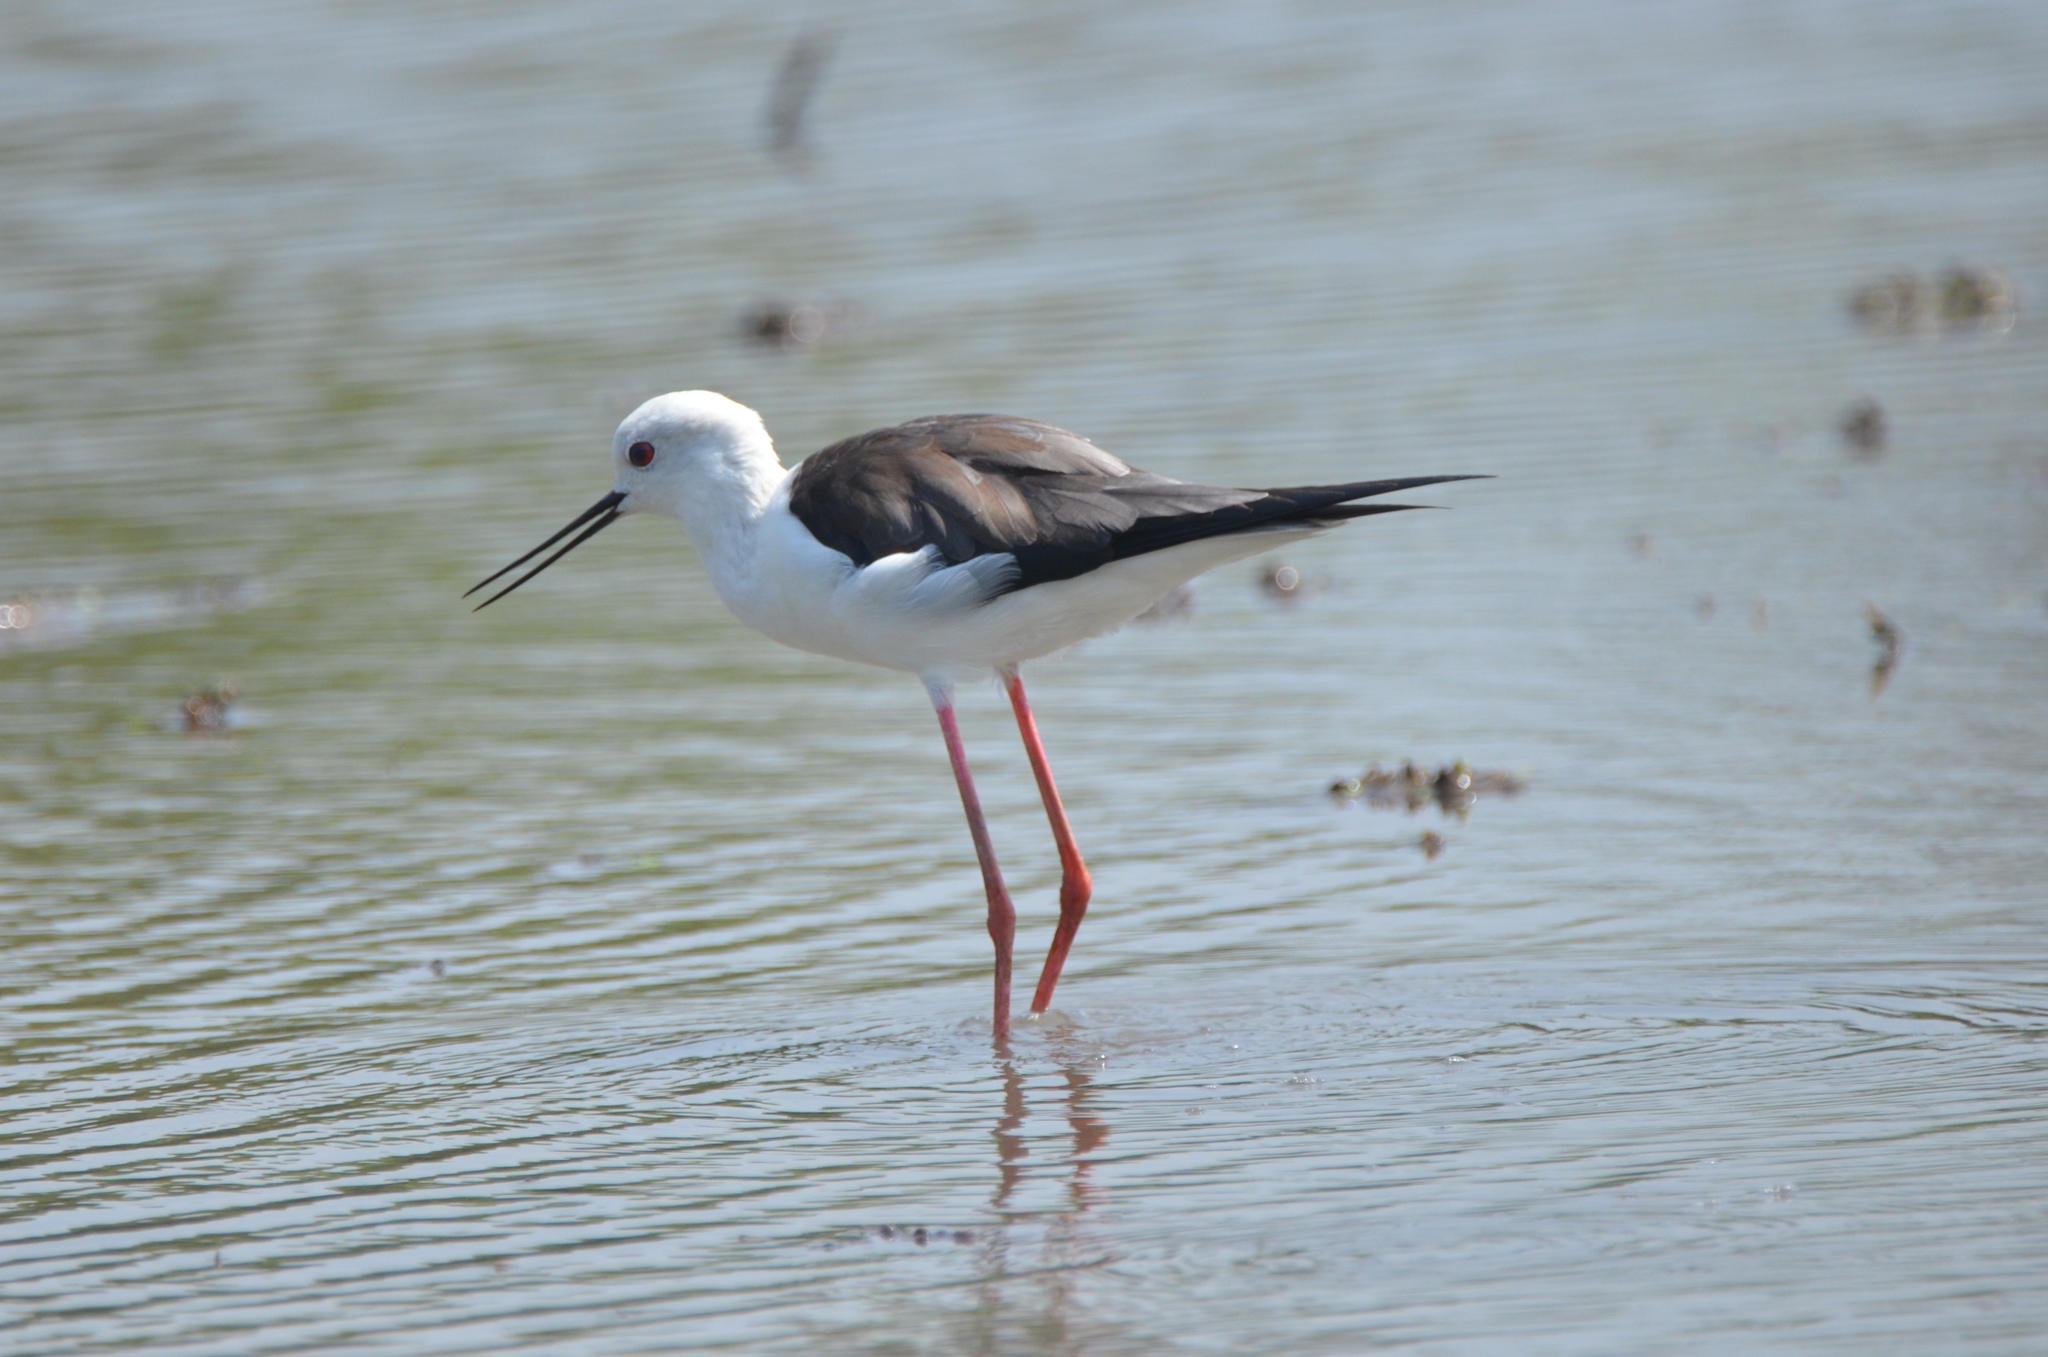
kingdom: Animalia
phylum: Chordata
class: Aves
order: Charadriiformes
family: Recurvirostridae
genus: Himantopus
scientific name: Himantopus himantopus
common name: Black-winged stilt
